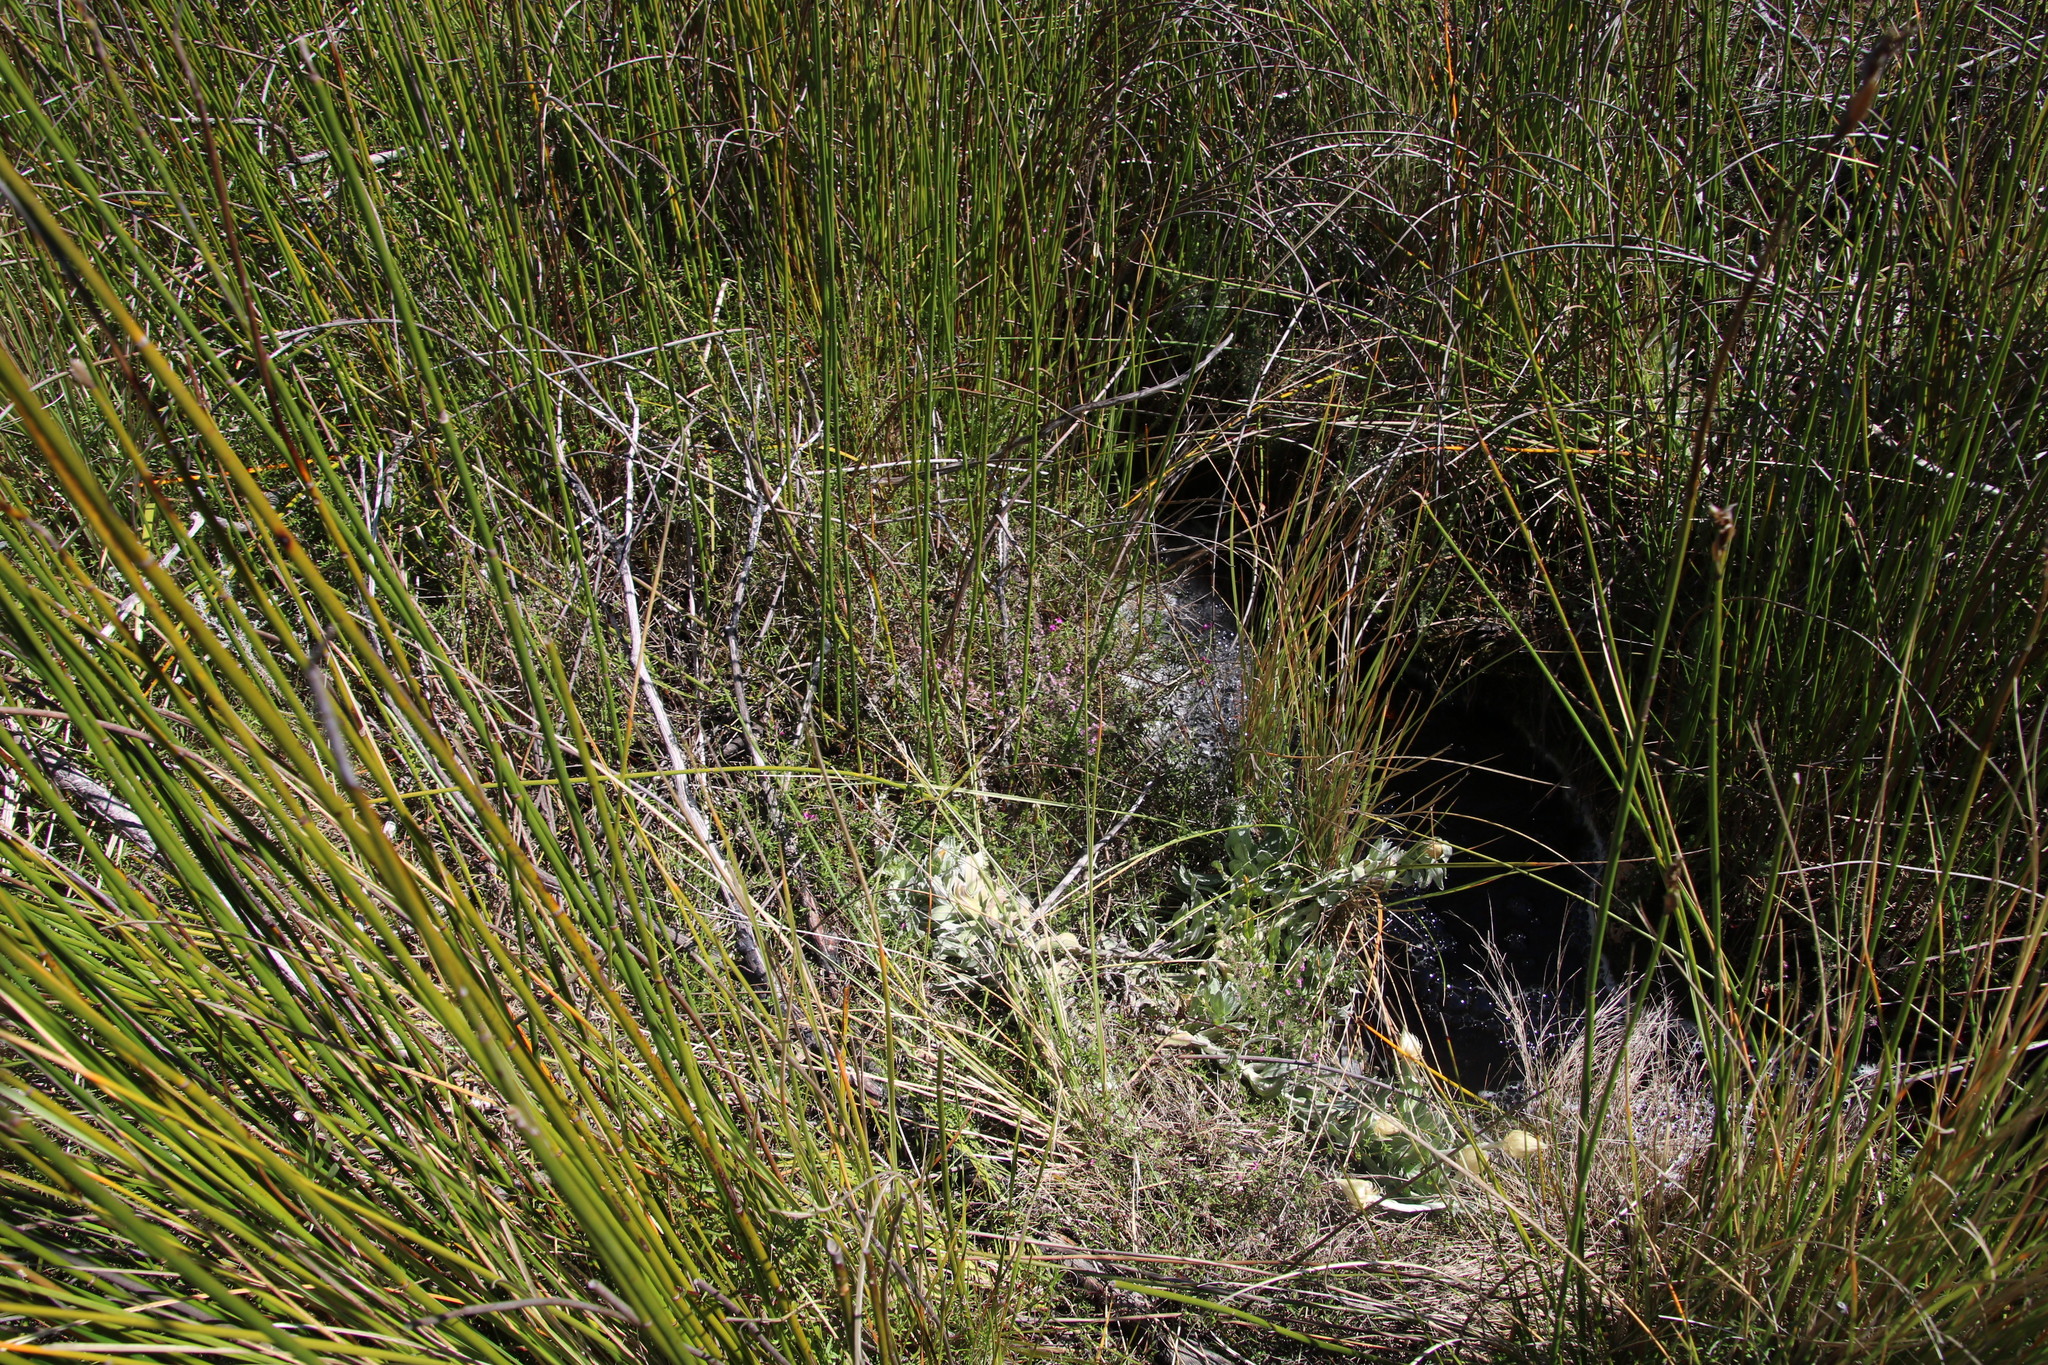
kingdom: Plantae
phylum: Tracheophyta
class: Magnoliopsida
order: Ericales
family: Ericaceae
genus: Erica
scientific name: Erica hirtiflora
